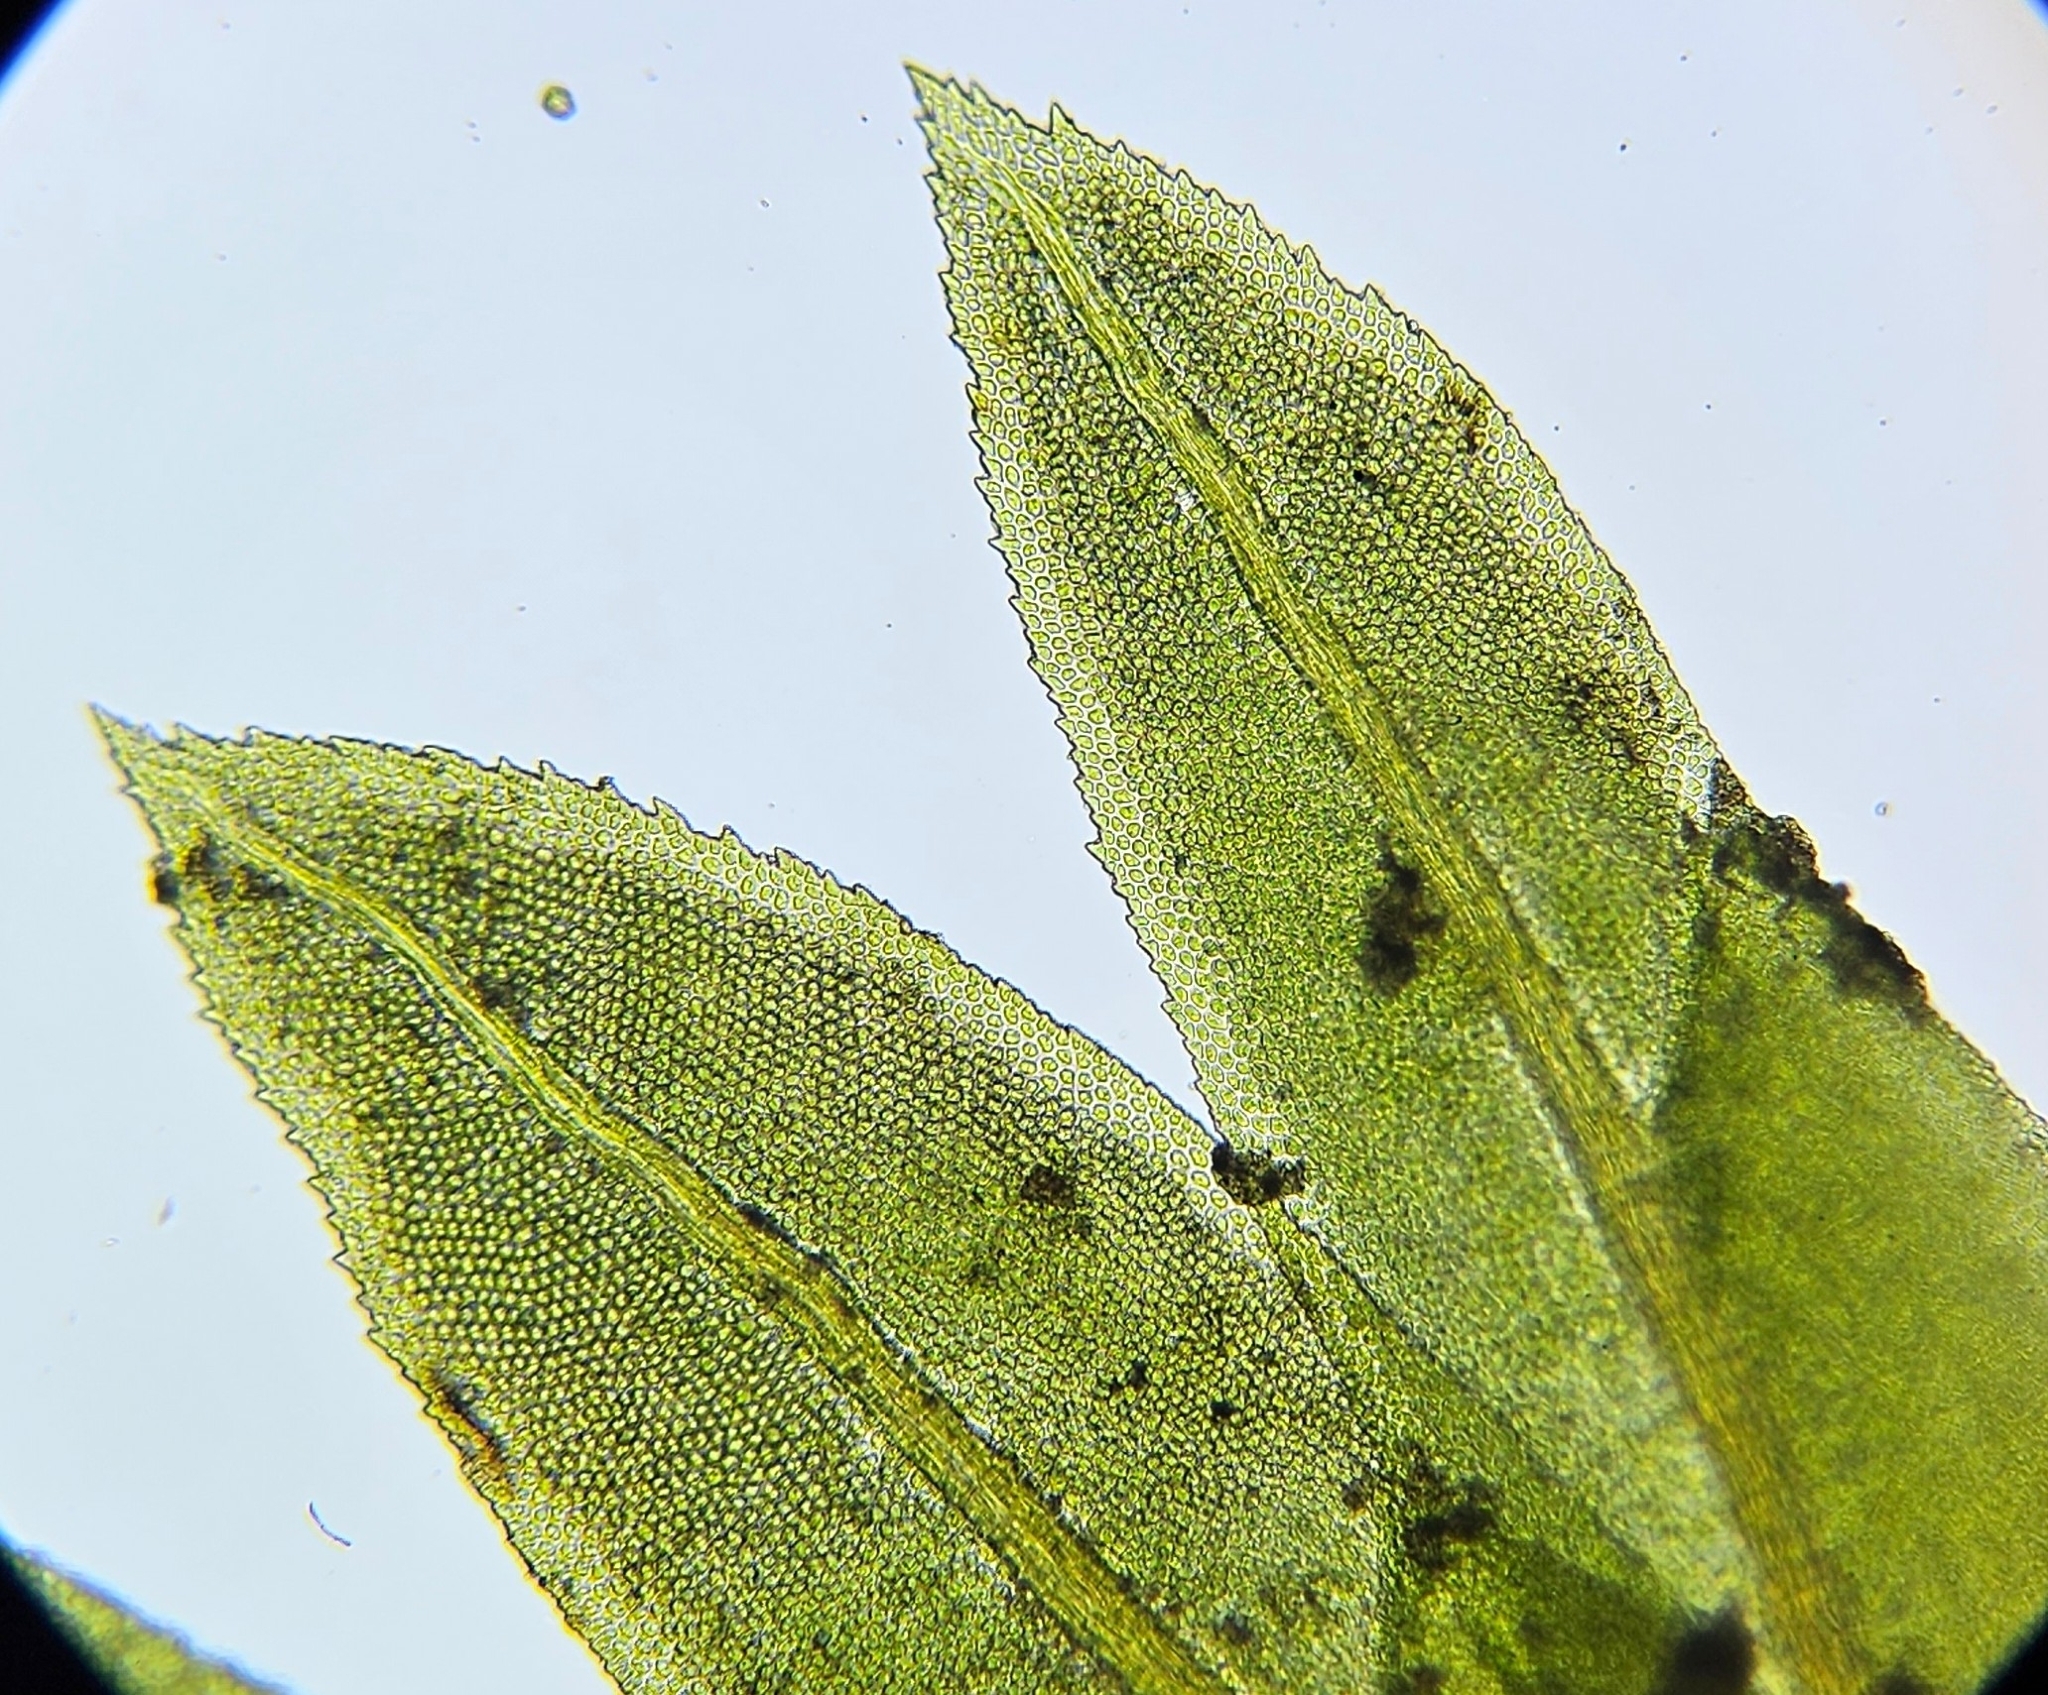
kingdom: Plantae
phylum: Bryophyta
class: Bryopsida
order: Dicranales
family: Fissidentaceae
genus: Fissidens
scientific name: Fissidens dubius
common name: Rock pocket moss
